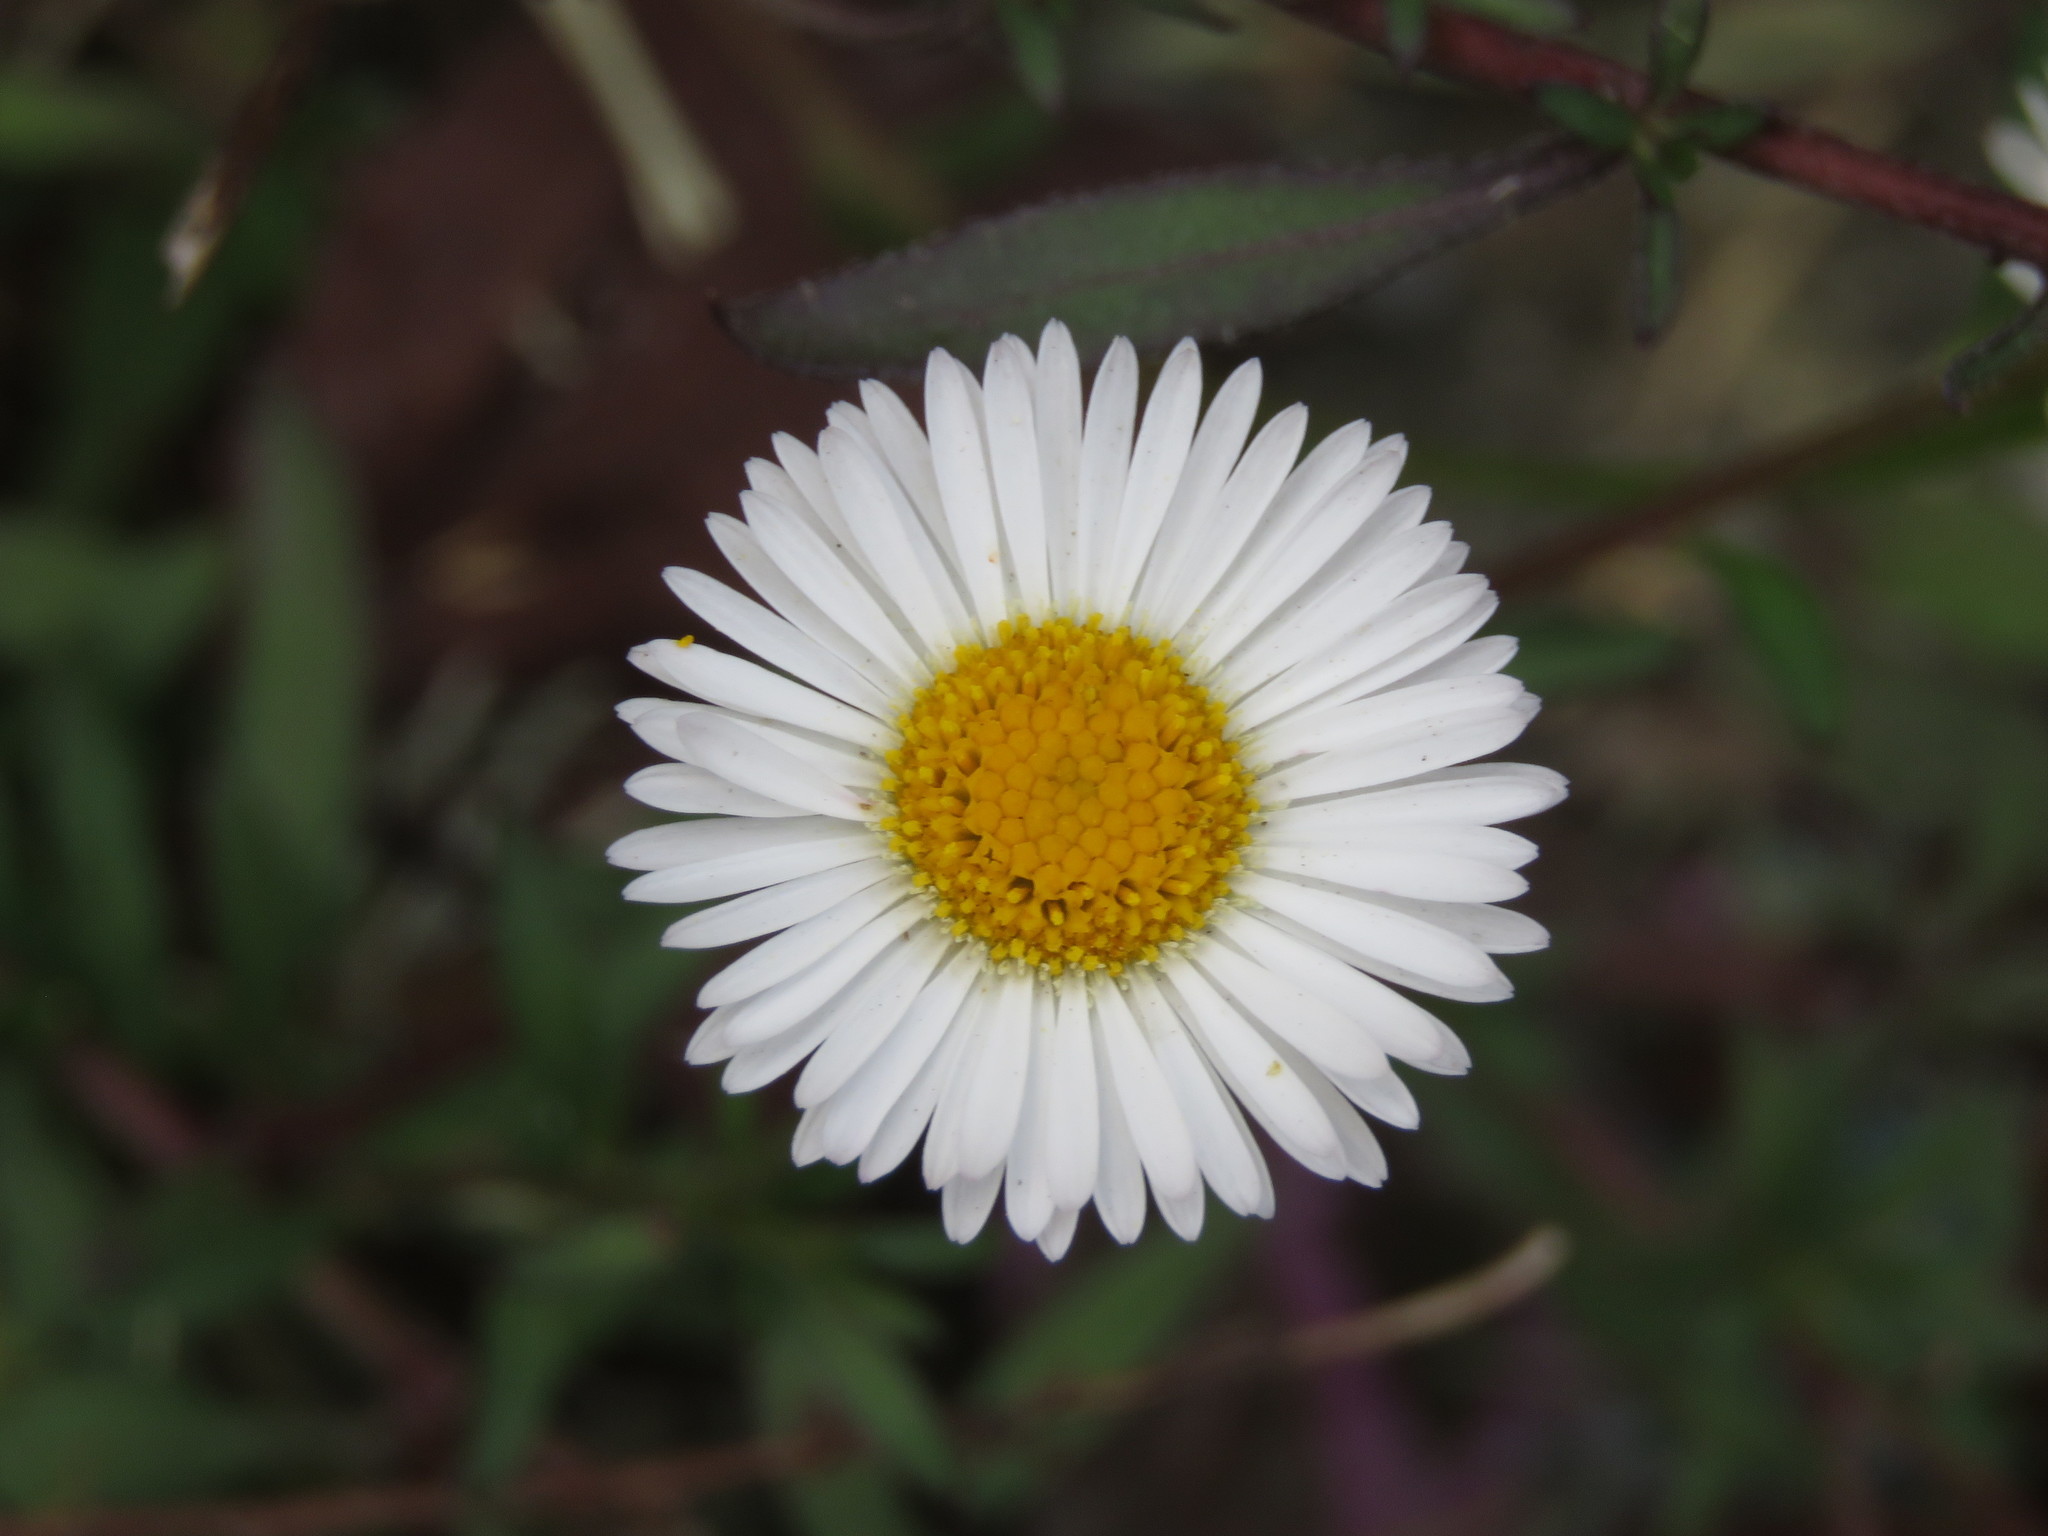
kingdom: Plantae
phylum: Tracheophyta
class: Magnoliopsida
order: Asterales
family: Asteraceae
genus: Erigeron
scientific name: Erigeron karvinskianus
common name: Mexican fleabane
